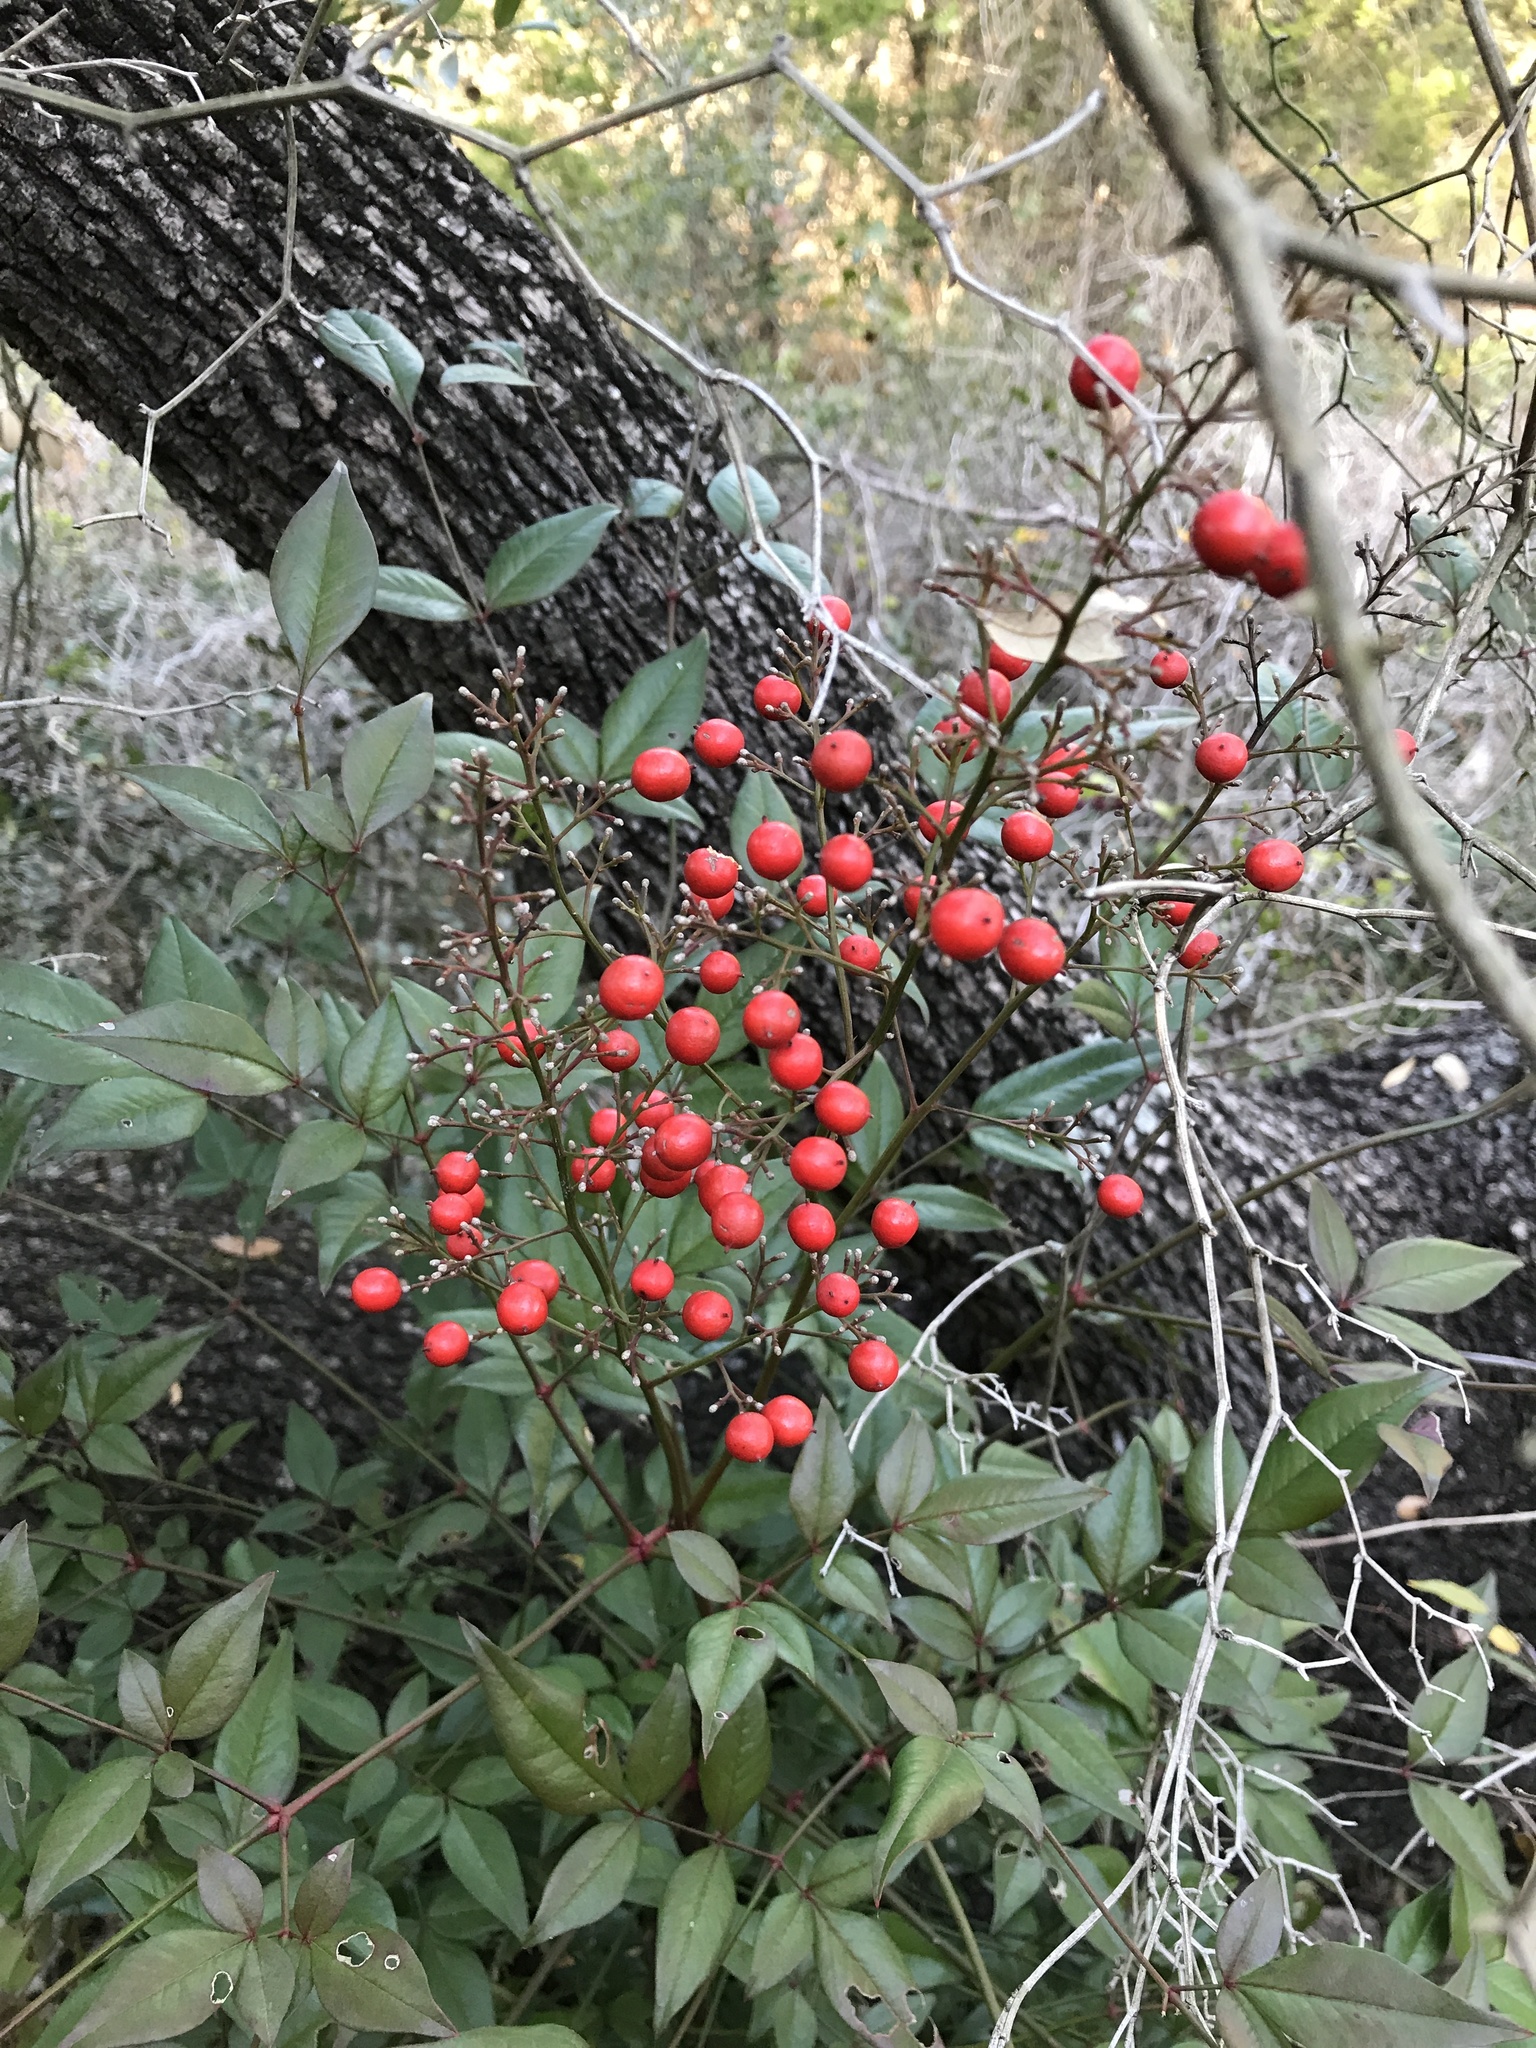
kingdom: Plantae
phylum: Tracheophyta
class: Magnoliopsida
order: Ranunculales
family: Berberidaceae
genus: Nandina
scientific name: Nandina domestica
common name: Sacred bamboo
